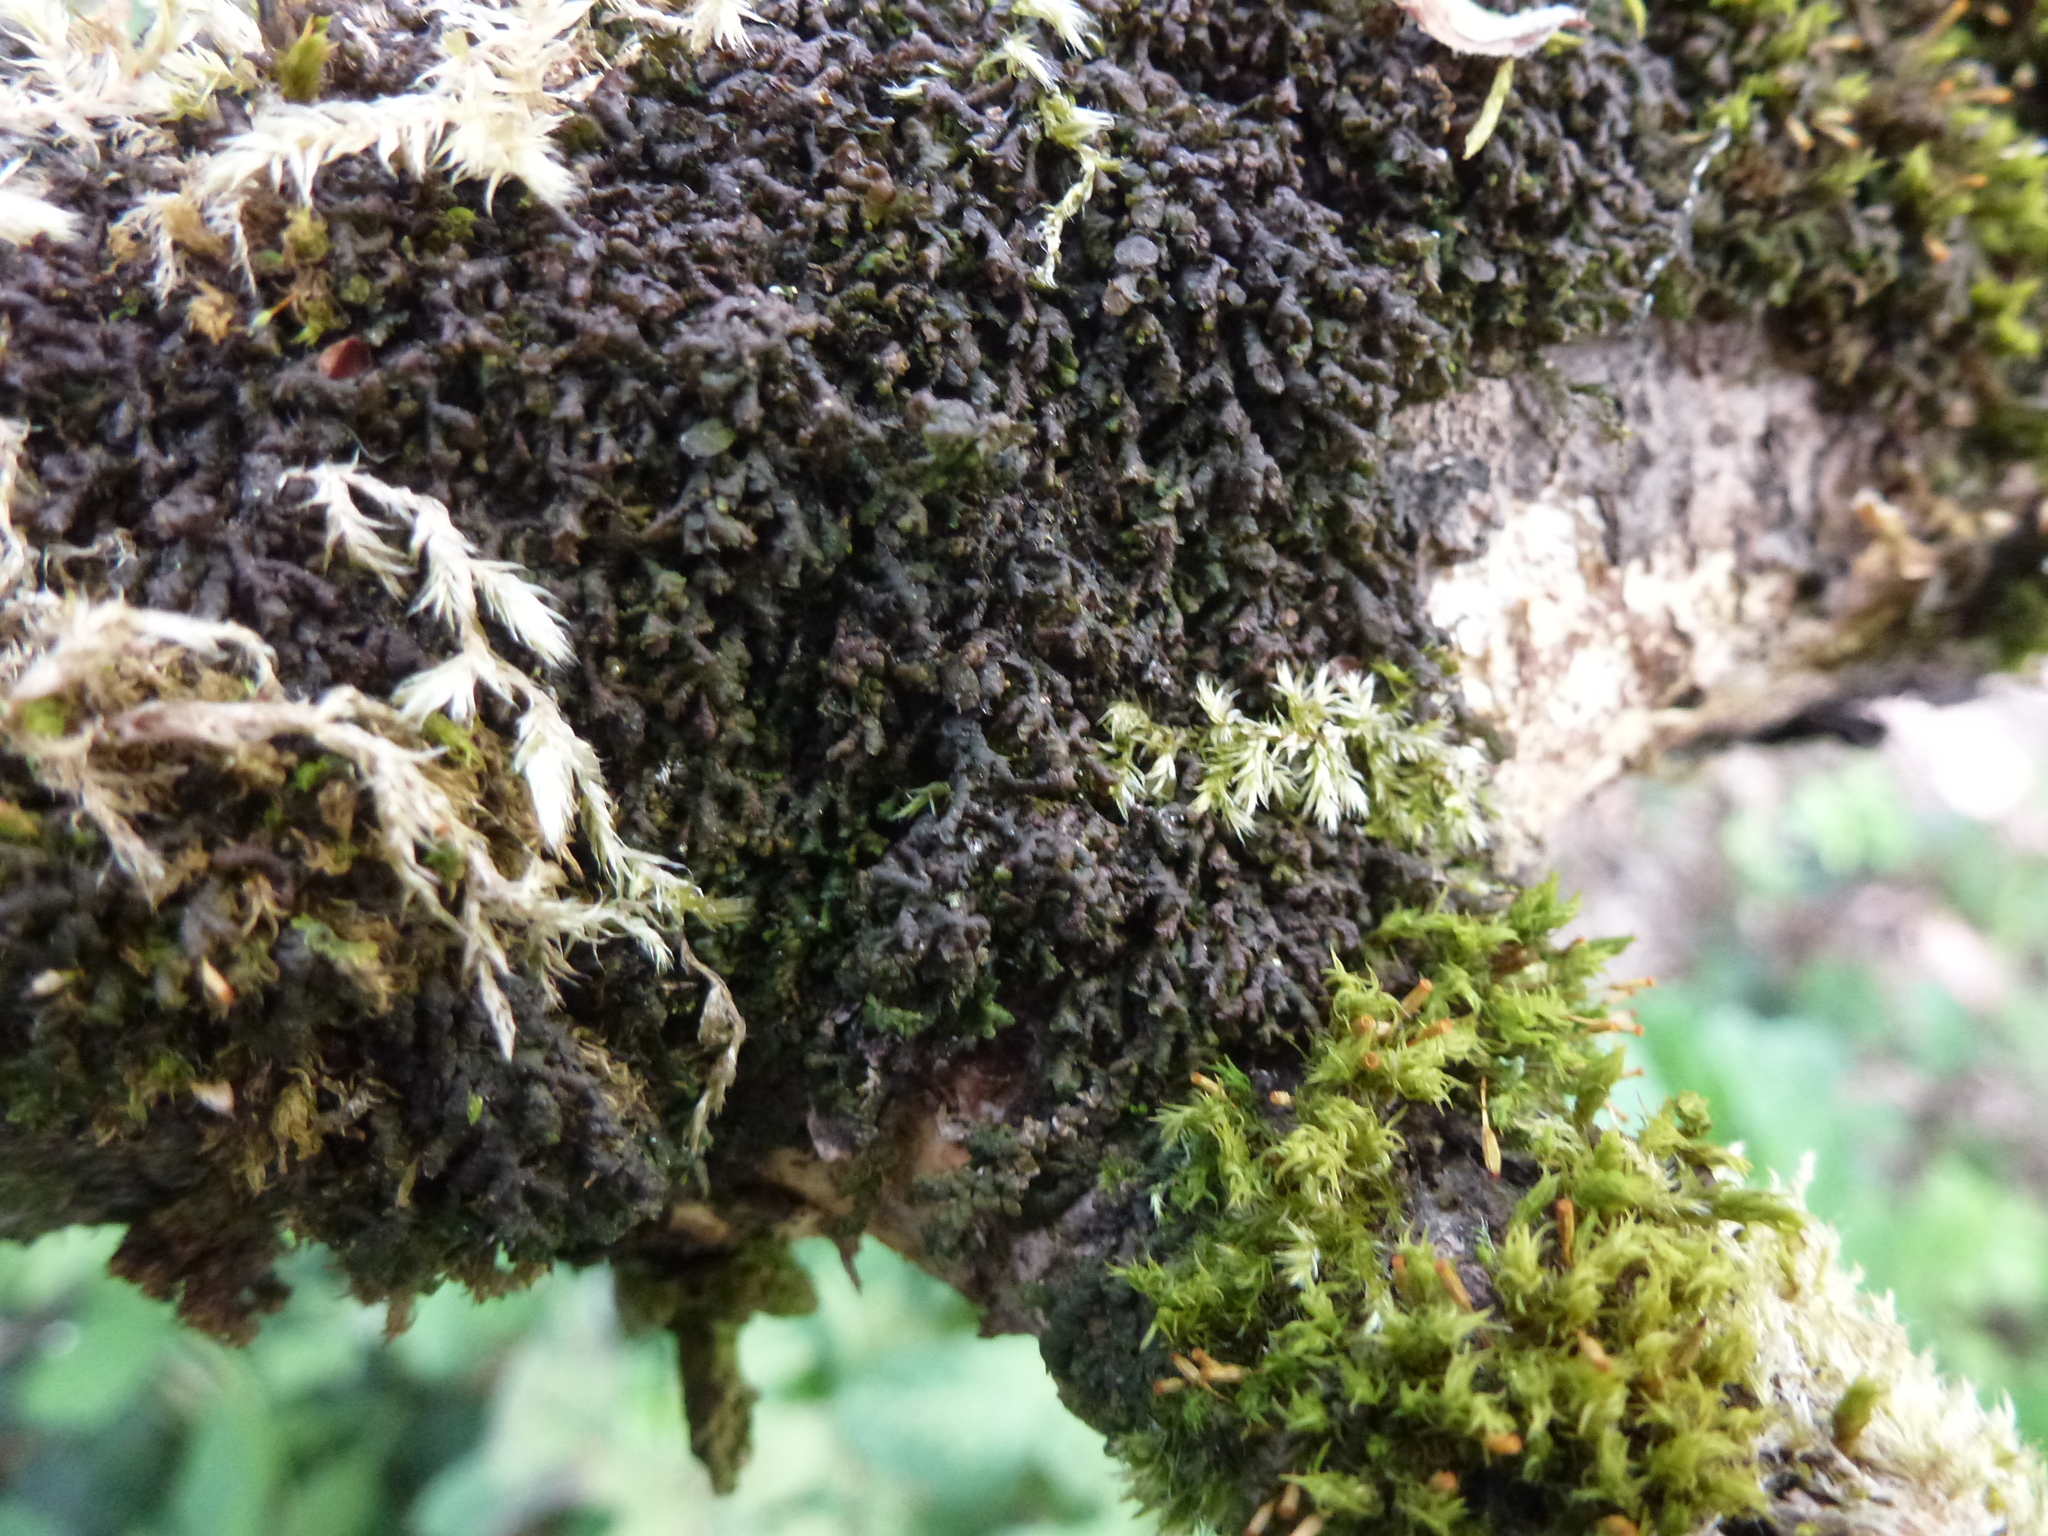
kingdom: Plantae
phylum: Marchantiophyta
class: Jungermanniopsida
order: Porellales
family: Frullaniaceae
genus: Frullania
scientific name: Frullania dilatata
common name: Dilated scalewort
